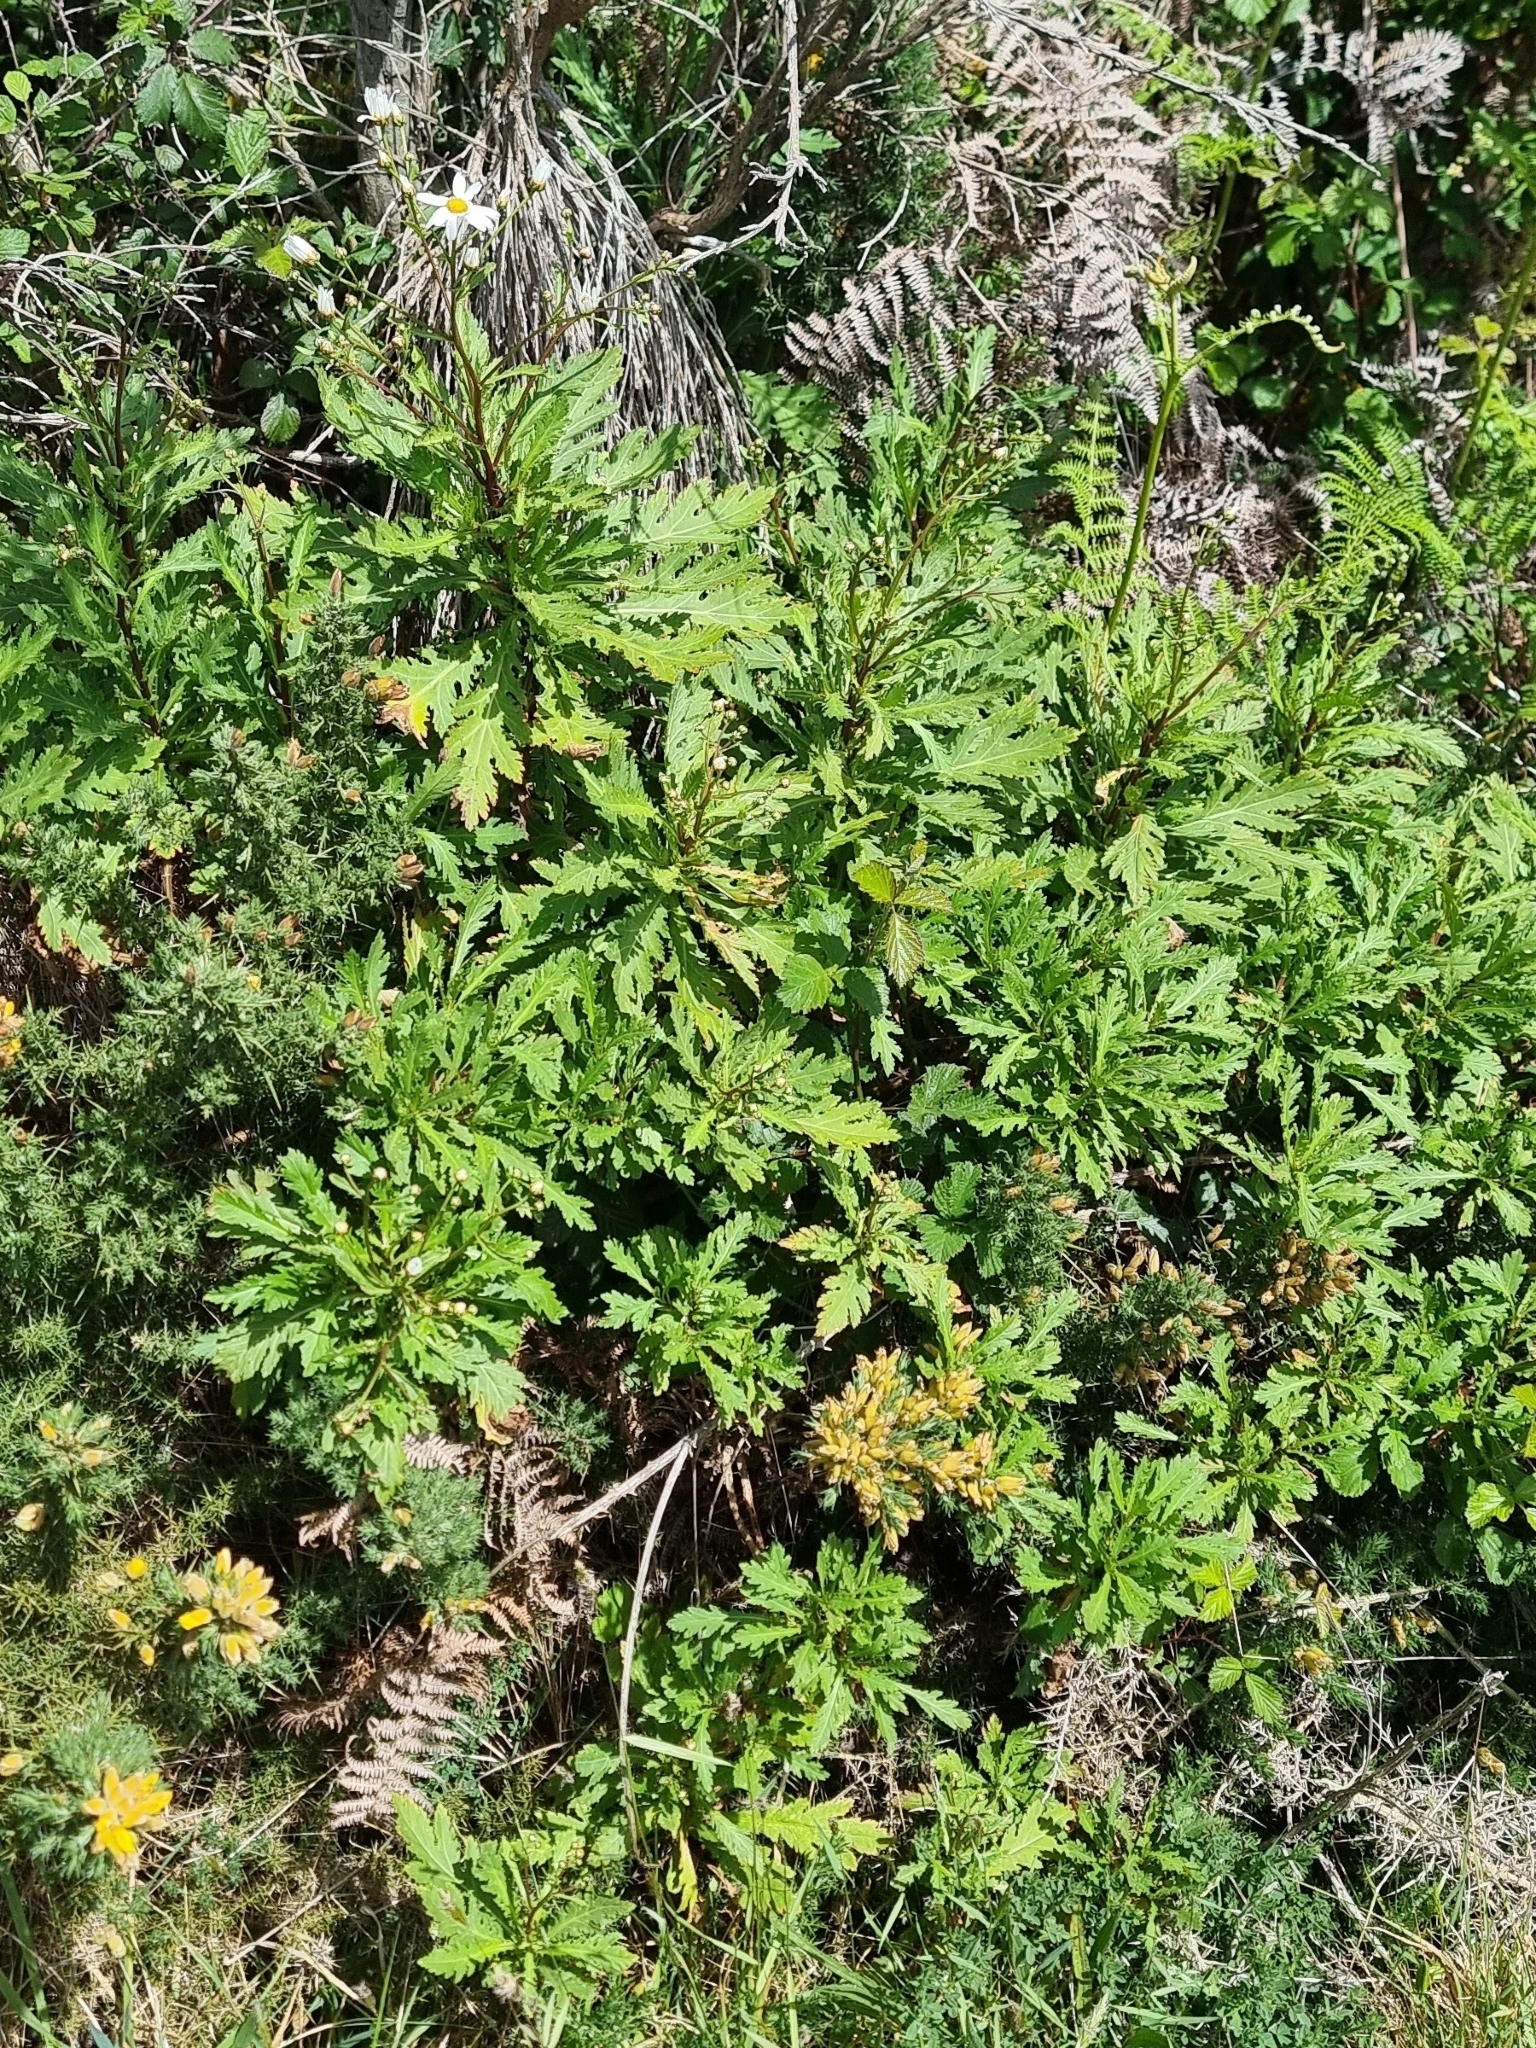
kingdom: Plantae
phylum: Tracheophyta
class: Magnoliopsida
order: Asterales
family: Asteraceae
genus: Argyranthemum
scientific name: Argyranthemum pinnatifidum
